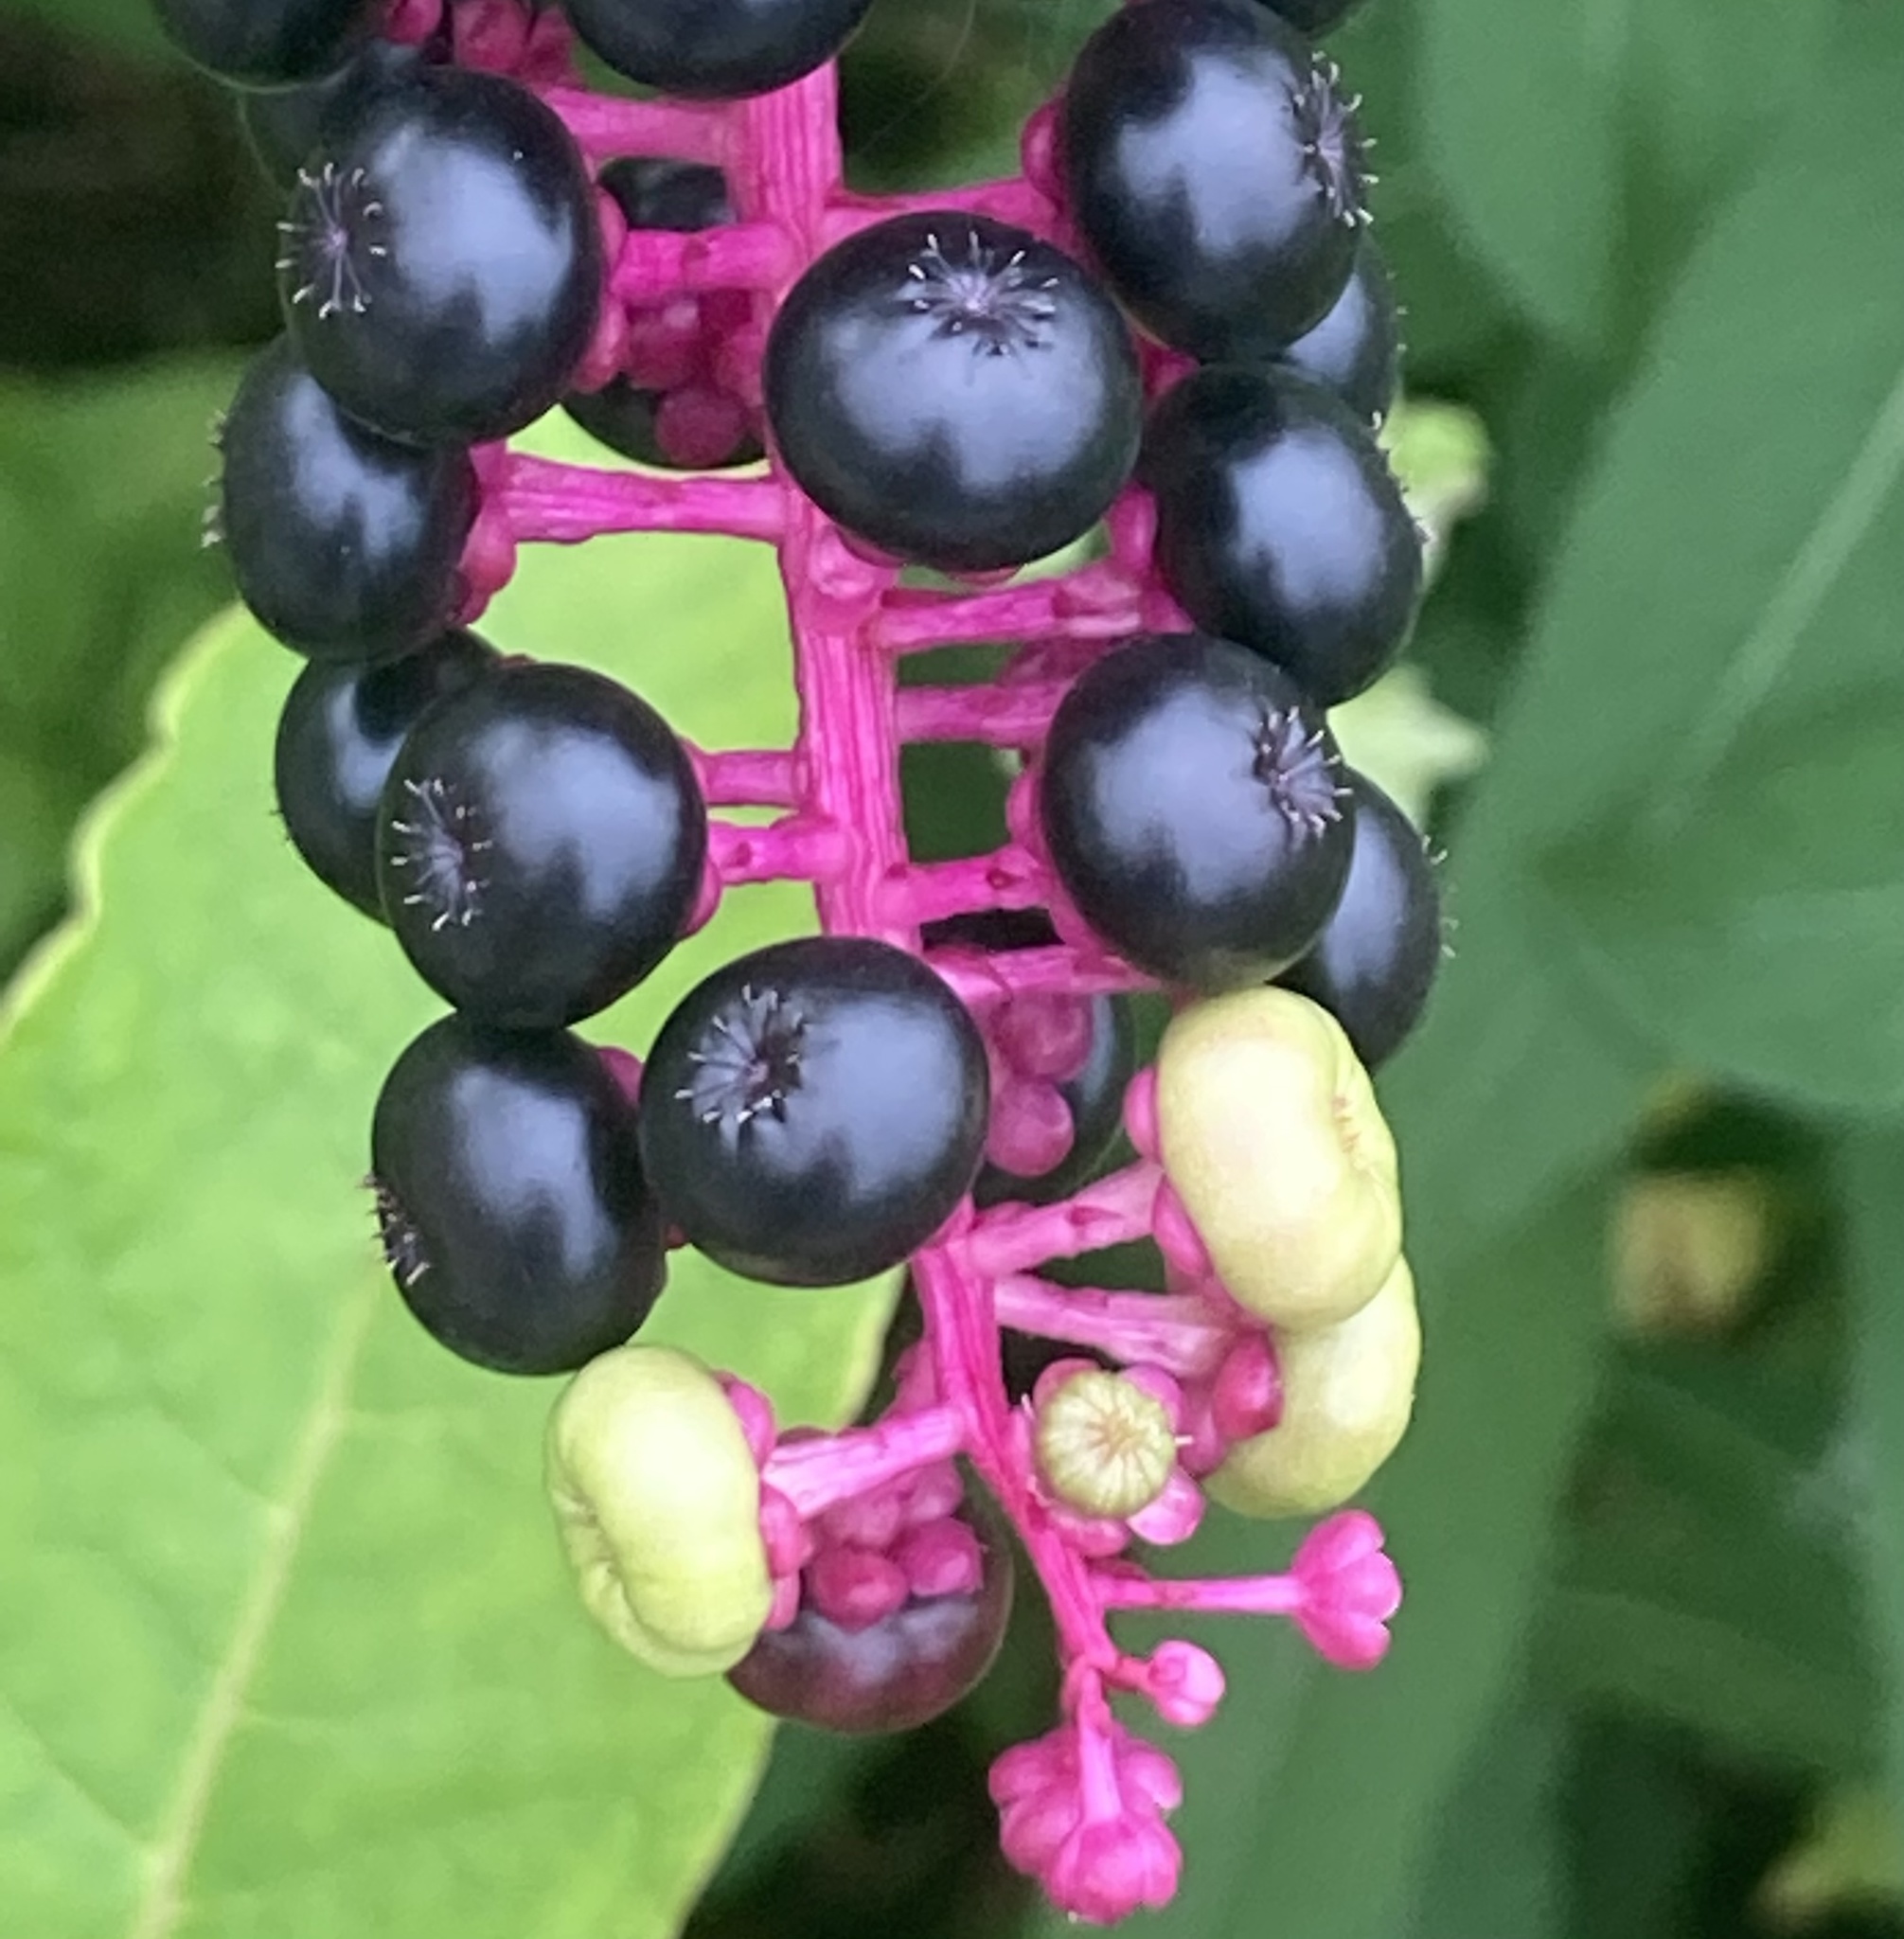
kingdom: Plantae
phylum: Tracheophyta
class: Magnoliopsida
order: Caryophyllales
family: Phytolaccaceae
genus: Phytolacca
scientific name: Phytolacca americana
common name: American pokeweed
